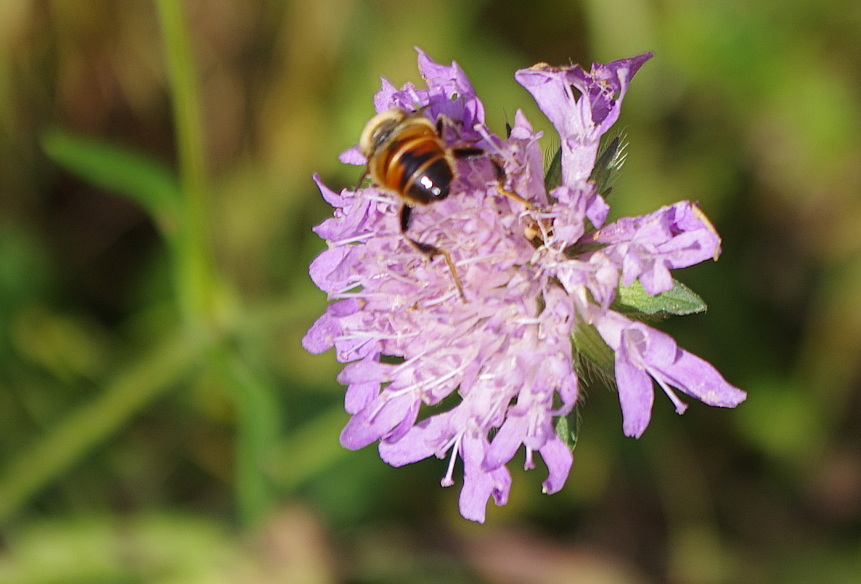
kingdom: Plantae
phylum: Tracheophyta
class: Magnoliopsida
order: Dipsacales
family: Caprifoliaceae
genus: Knautia
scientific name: Knautia arvensis
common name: Field scabiosa
